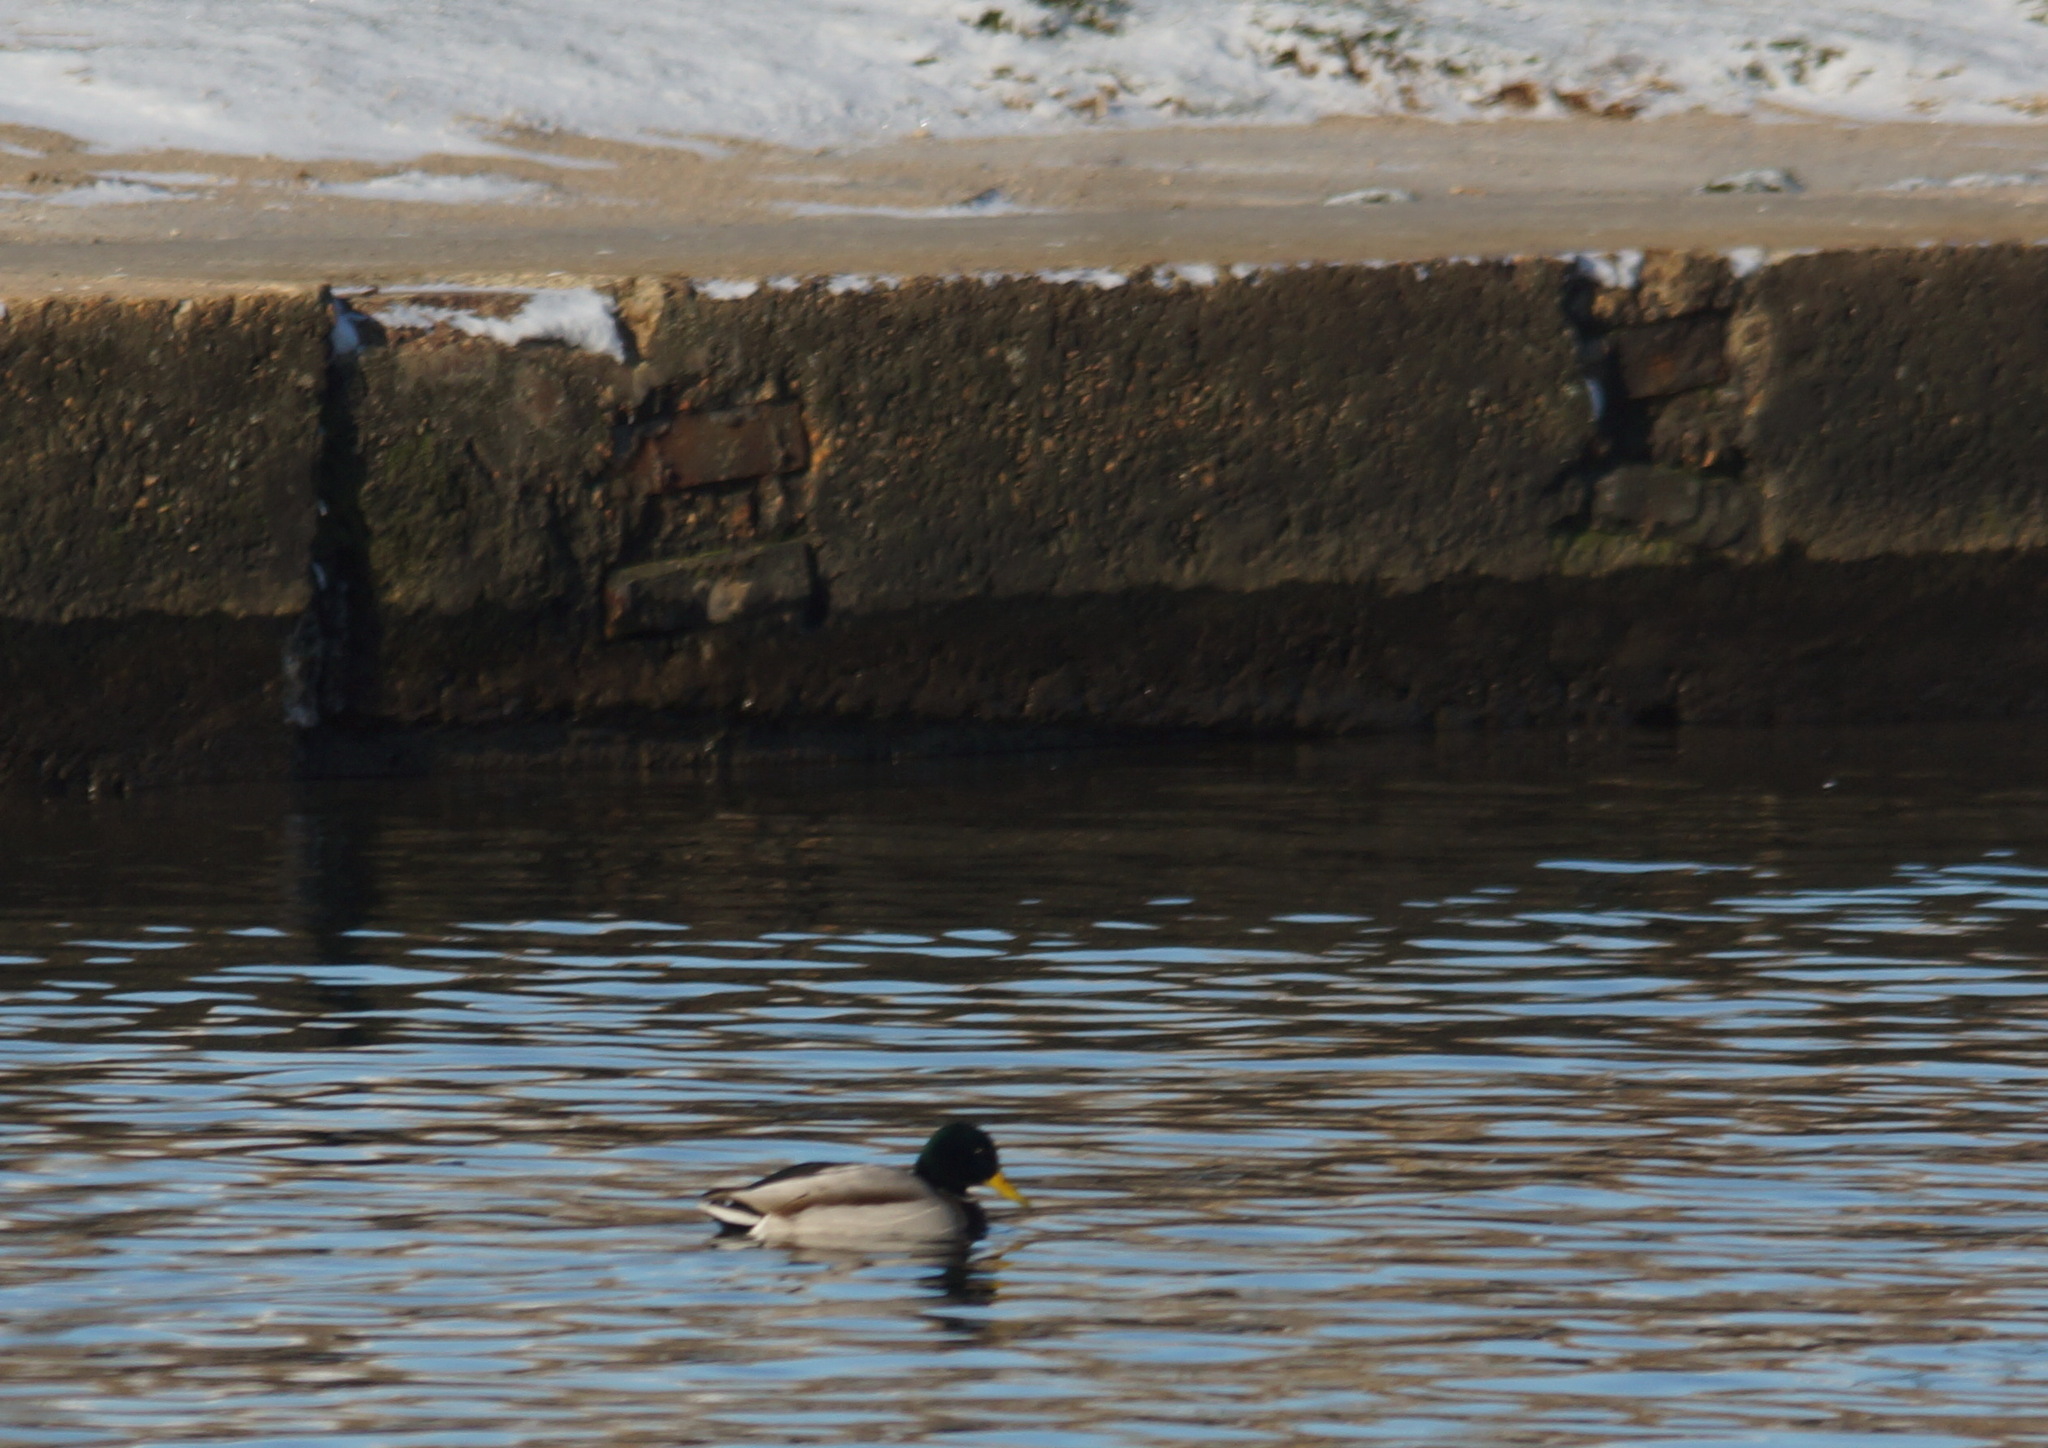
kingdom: Animalia
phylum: Chordata
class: Aves
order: Anseriformes
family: Anatidae
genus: Anas
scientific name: Anas platyrhynchos
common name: Mallard
